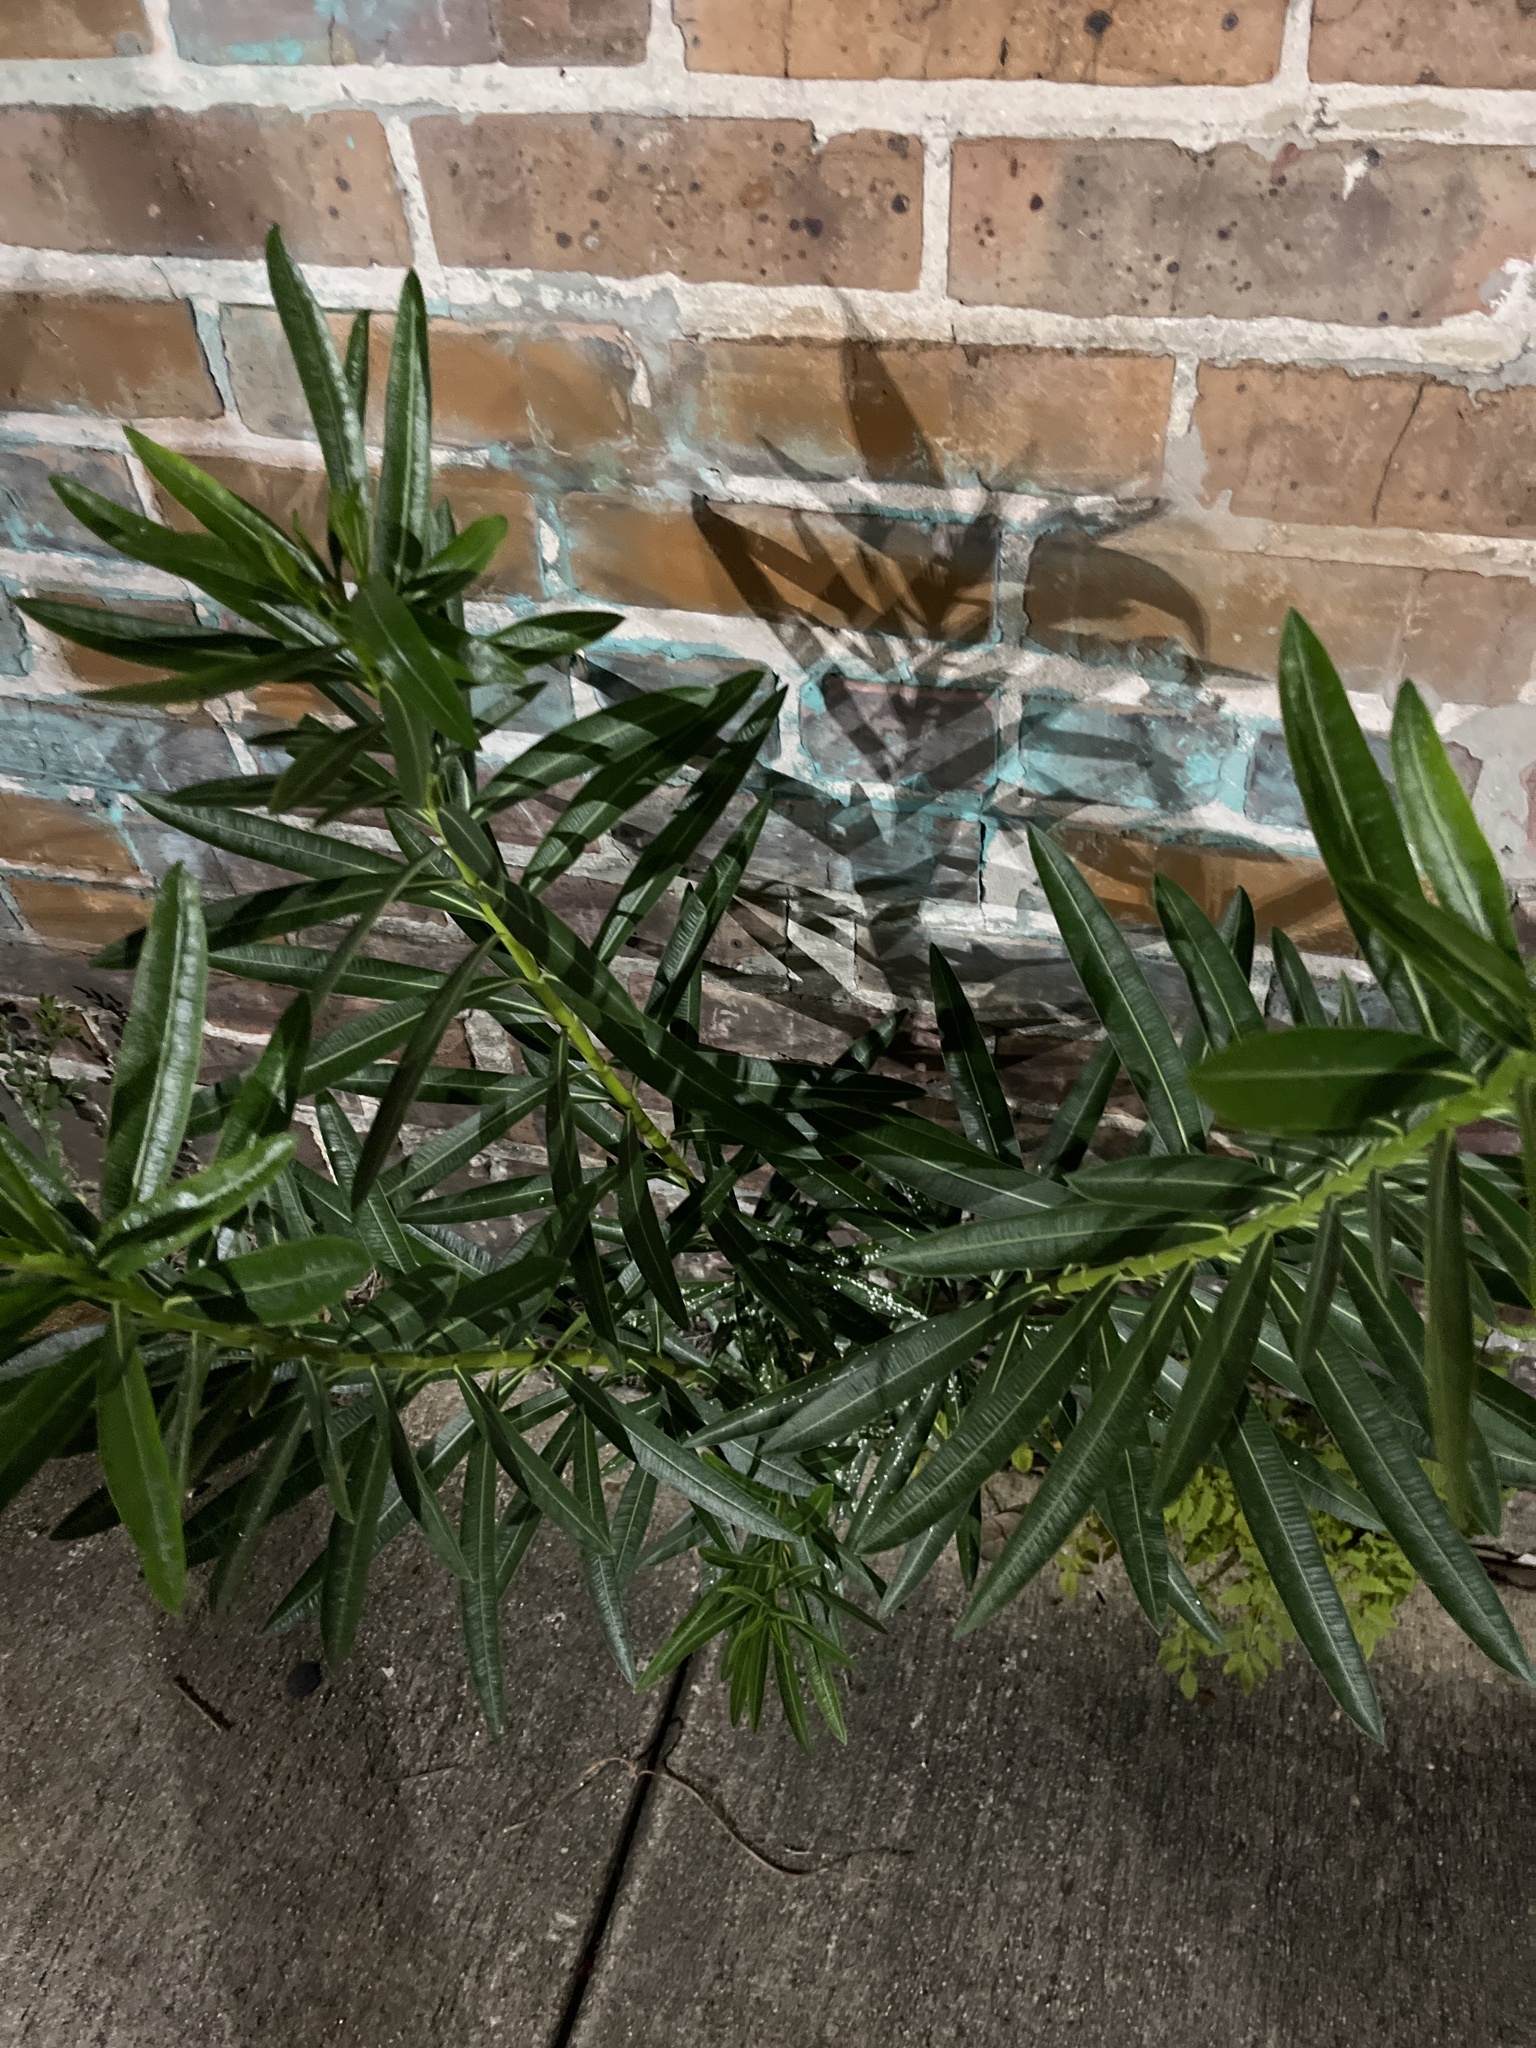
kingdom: Plantae
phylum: Tracheophyta
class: Magnoliopsida
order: Gentianales
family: Apocynaceae
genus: Nerium
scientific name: Nerium oleander
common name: Oleander
